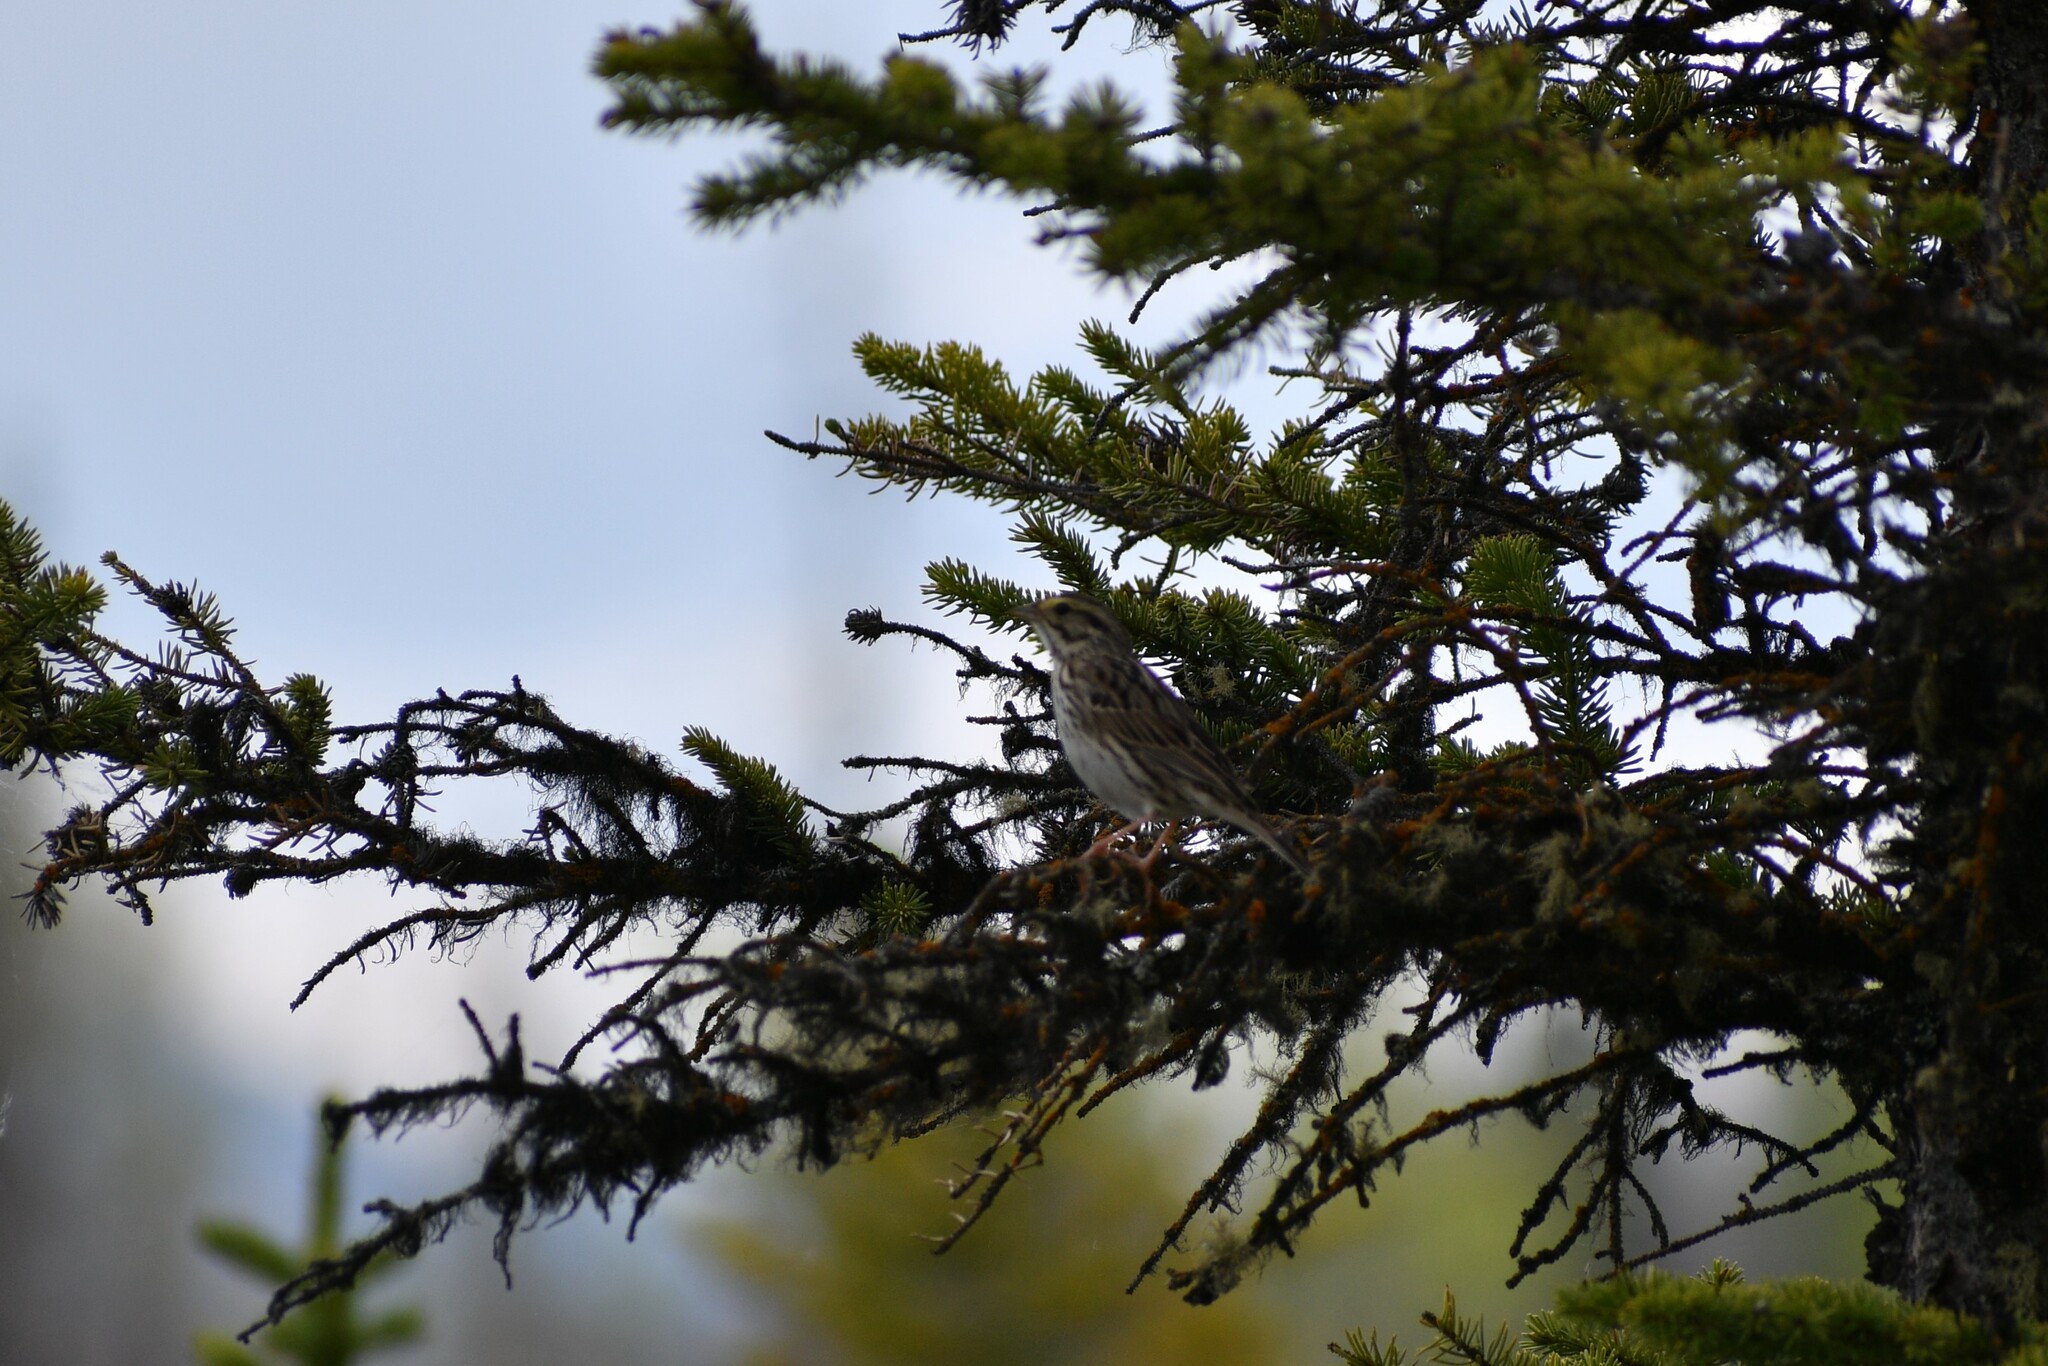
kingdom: Animalia
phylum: Chordata
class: Aves
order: Passeriformes
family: Passerellidae
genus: Passerculus
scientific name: Passerculus sandwichensis
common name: Savannah sparrow
